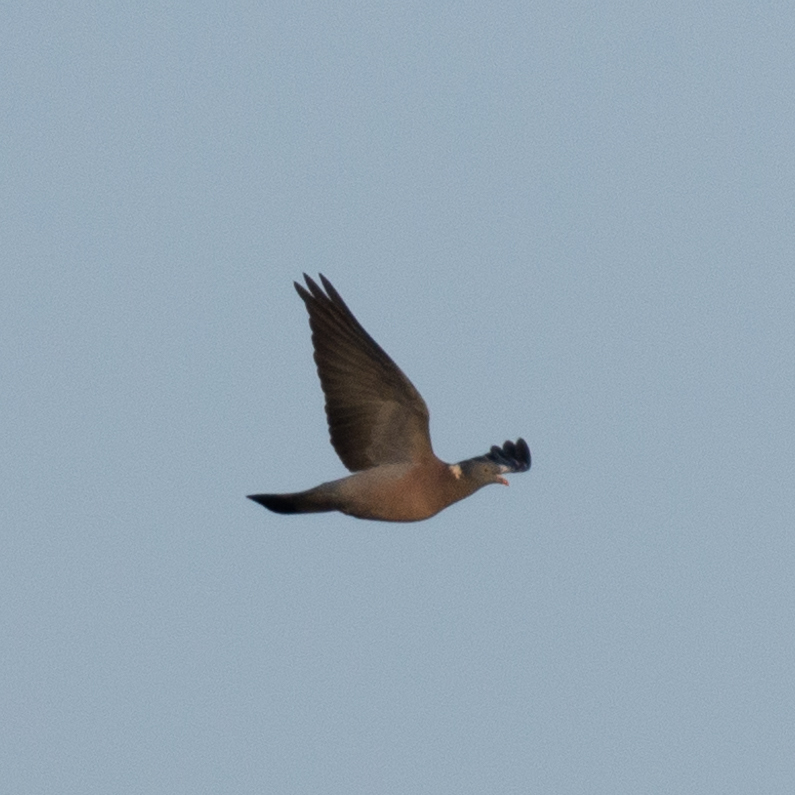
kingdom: Animalia
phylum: Chordata
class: Aves
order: Columbiformes
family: Columbidae
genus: Columba
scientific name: Columba palumbus
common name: Common wood pigeon
